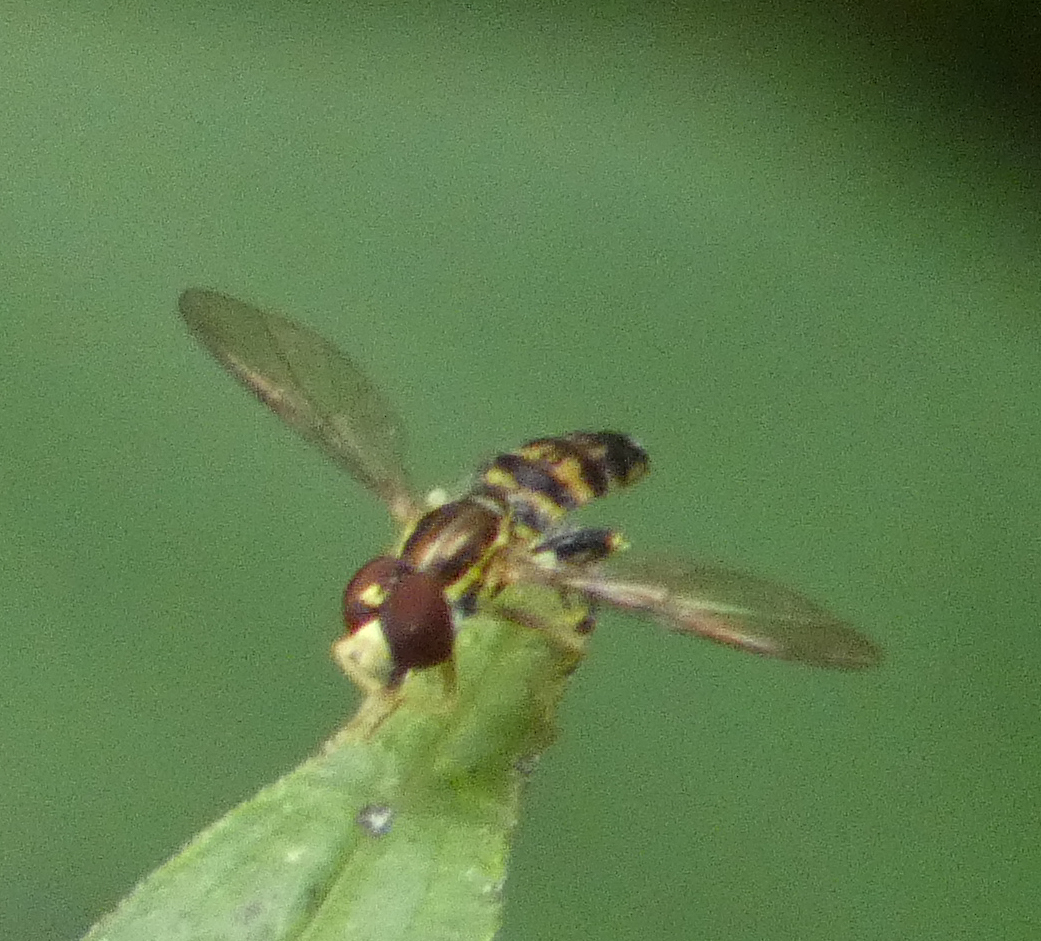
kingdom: Animalia
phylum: Arthropoda
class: Insecta
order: Diptera
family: Syrphidae
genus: Toxomerus
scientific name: Toxomerus geminatus
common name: Eastern calligrapher
